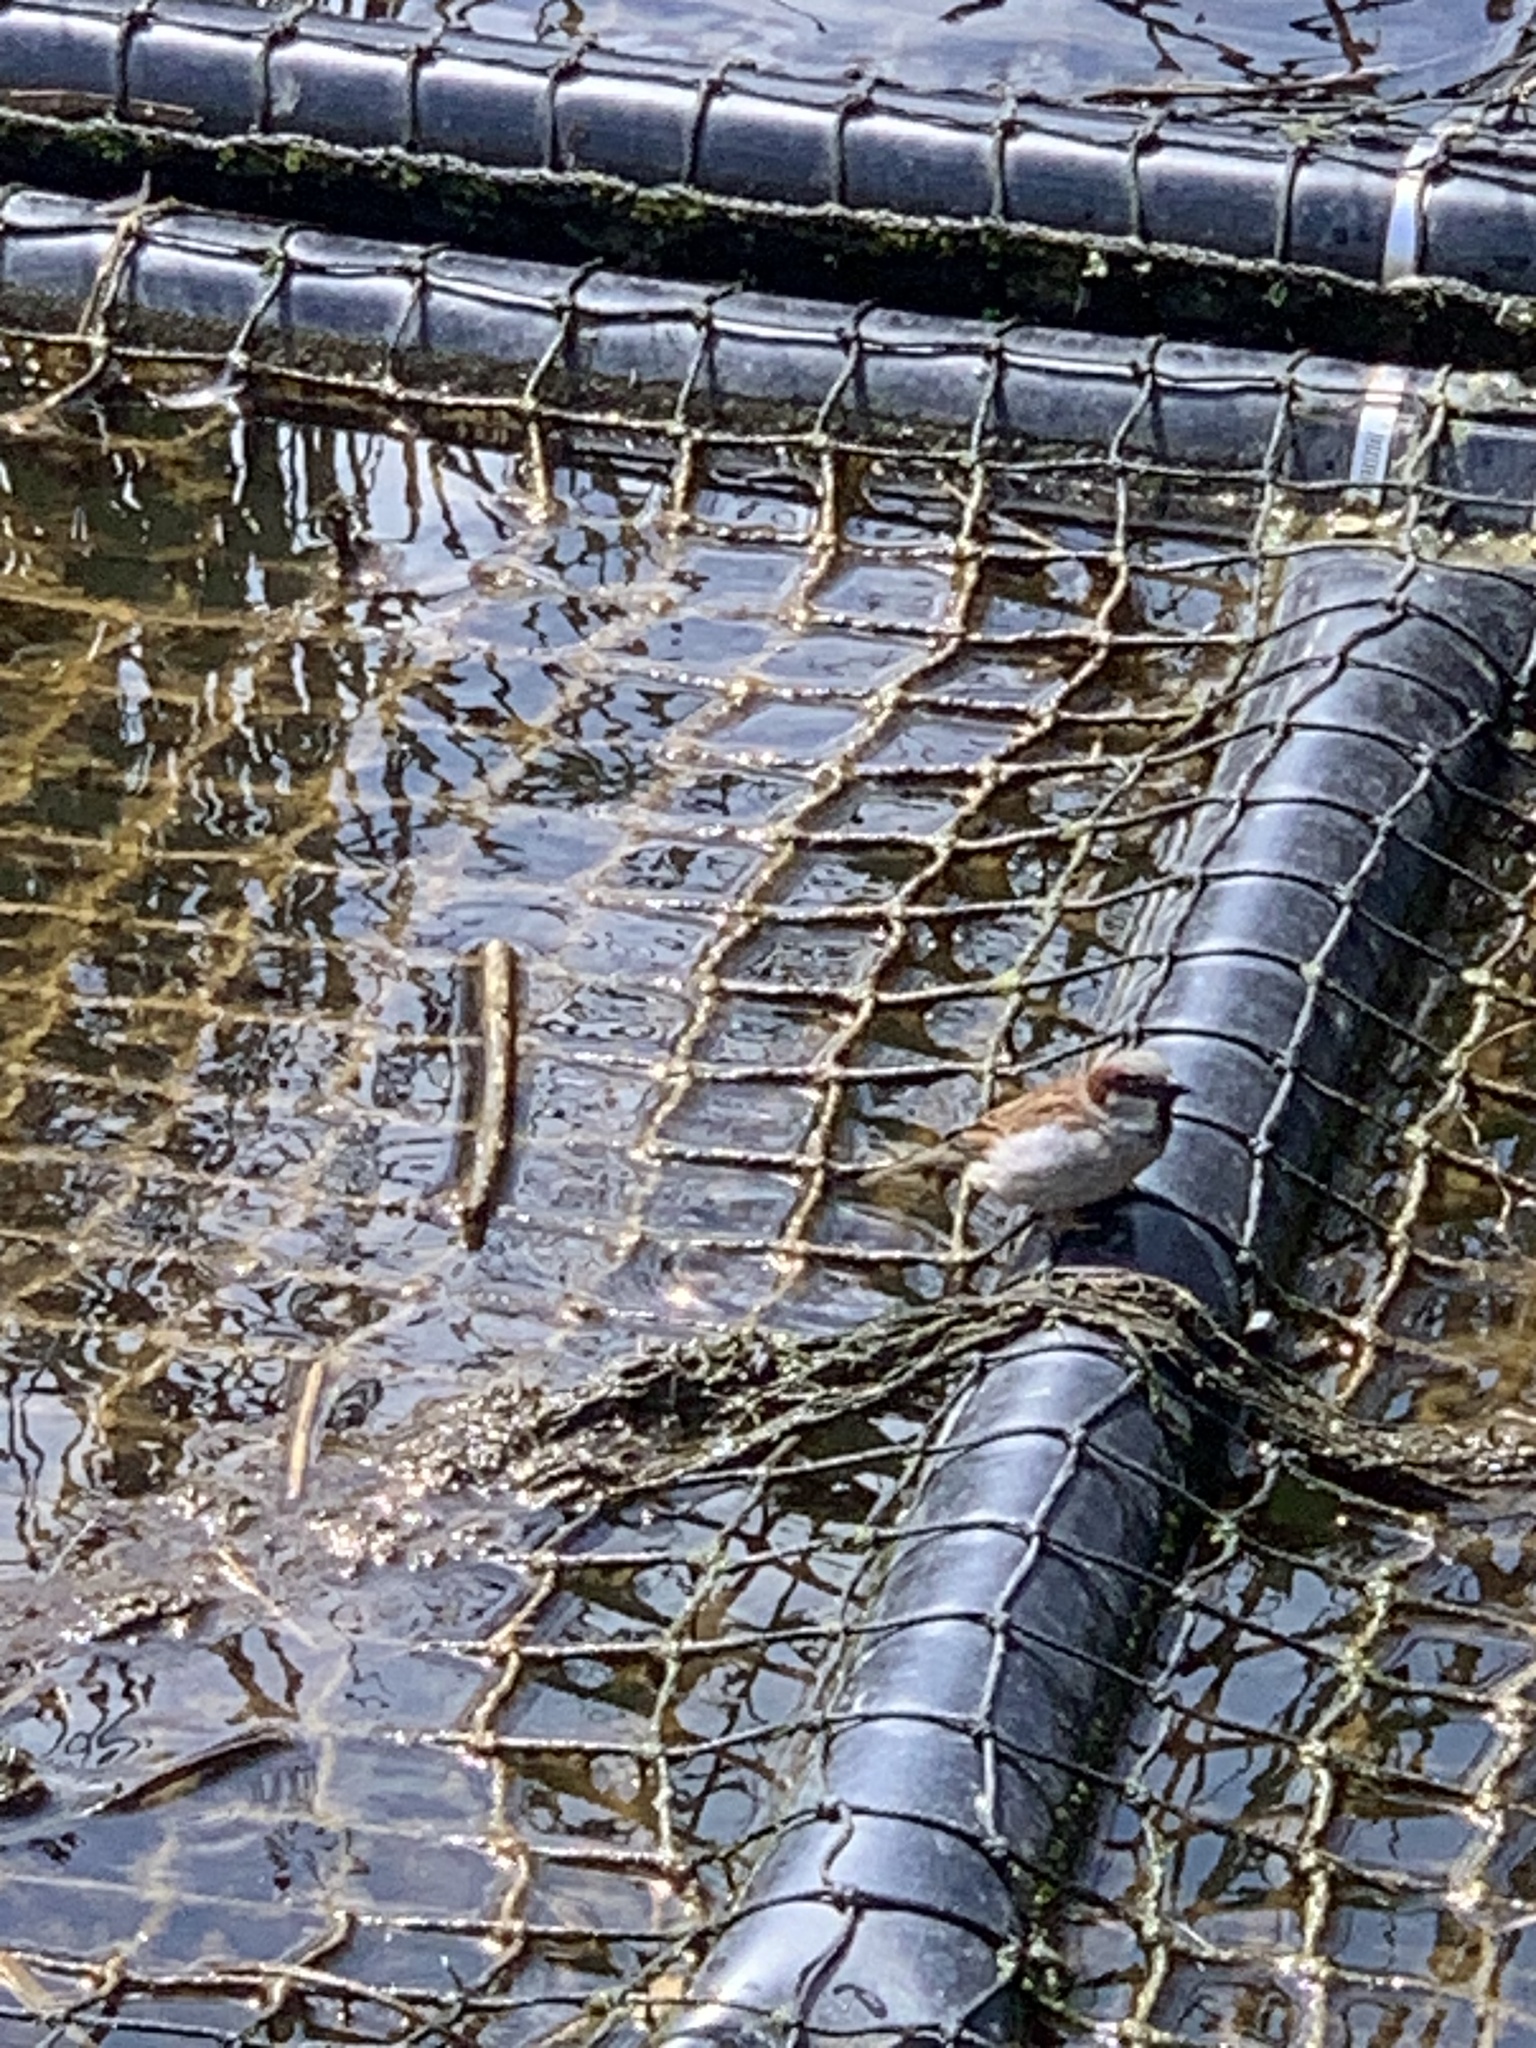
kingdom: Animalia
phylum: Chordata
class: Aves
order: Passeriformes
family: Passeridae
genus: Passer
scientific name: Passer domesticus
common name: House sparrow
